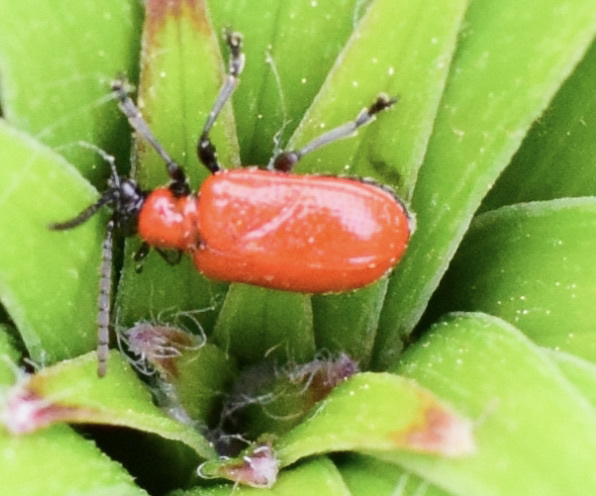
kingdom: Animalia
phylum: Arthropoda
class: Insecta
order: Coleoptera
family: Chrysomelidae
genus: Lilioceris
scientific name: Lilioceris lilii
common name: Lily beetle
